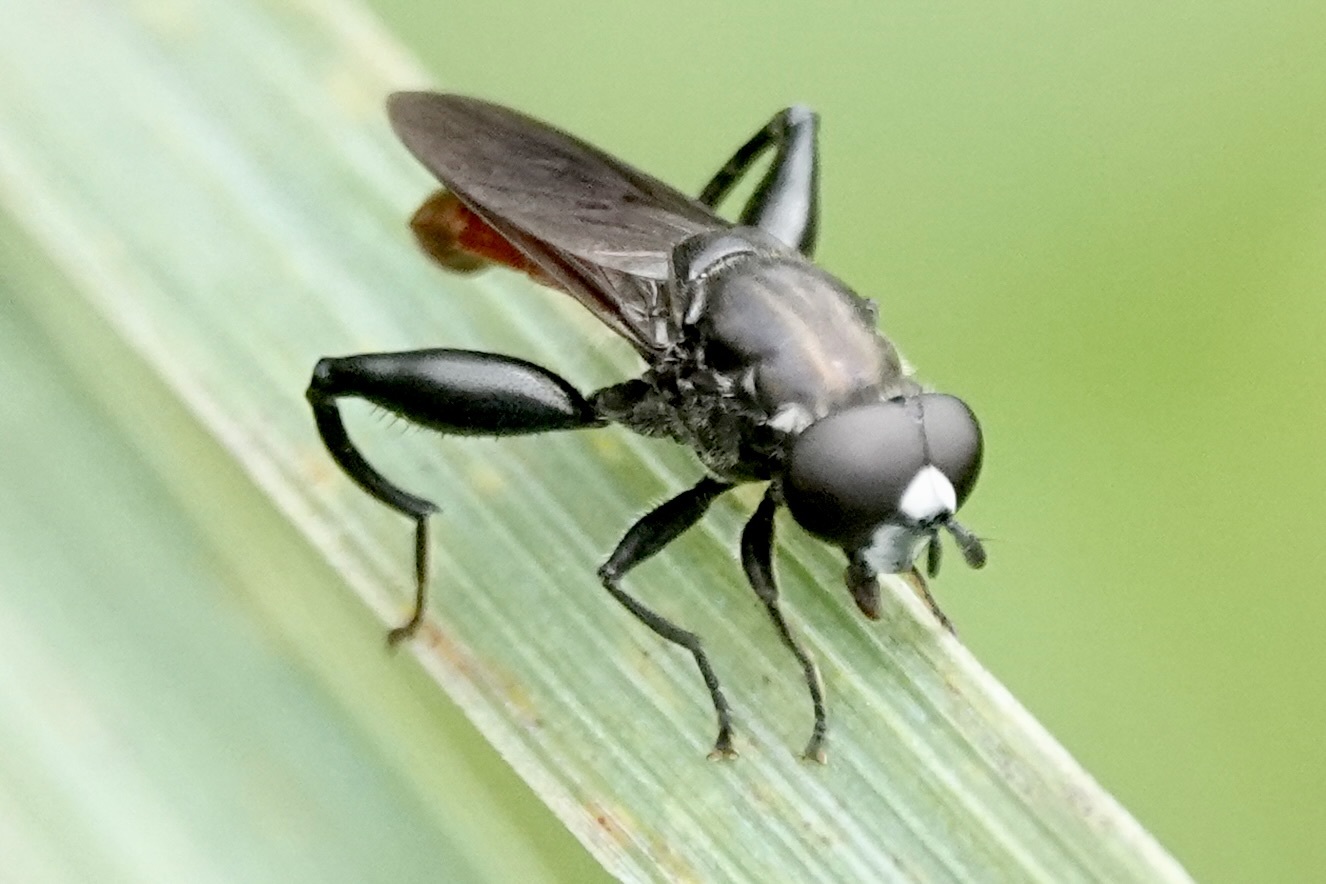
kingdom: Animalia
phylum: Arthropoda
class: Insecta
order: Diptera
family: Syrphidae
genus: Chalcosyrphus
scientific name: Chalcosyrphus piger
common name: Short-haired leafwalker
